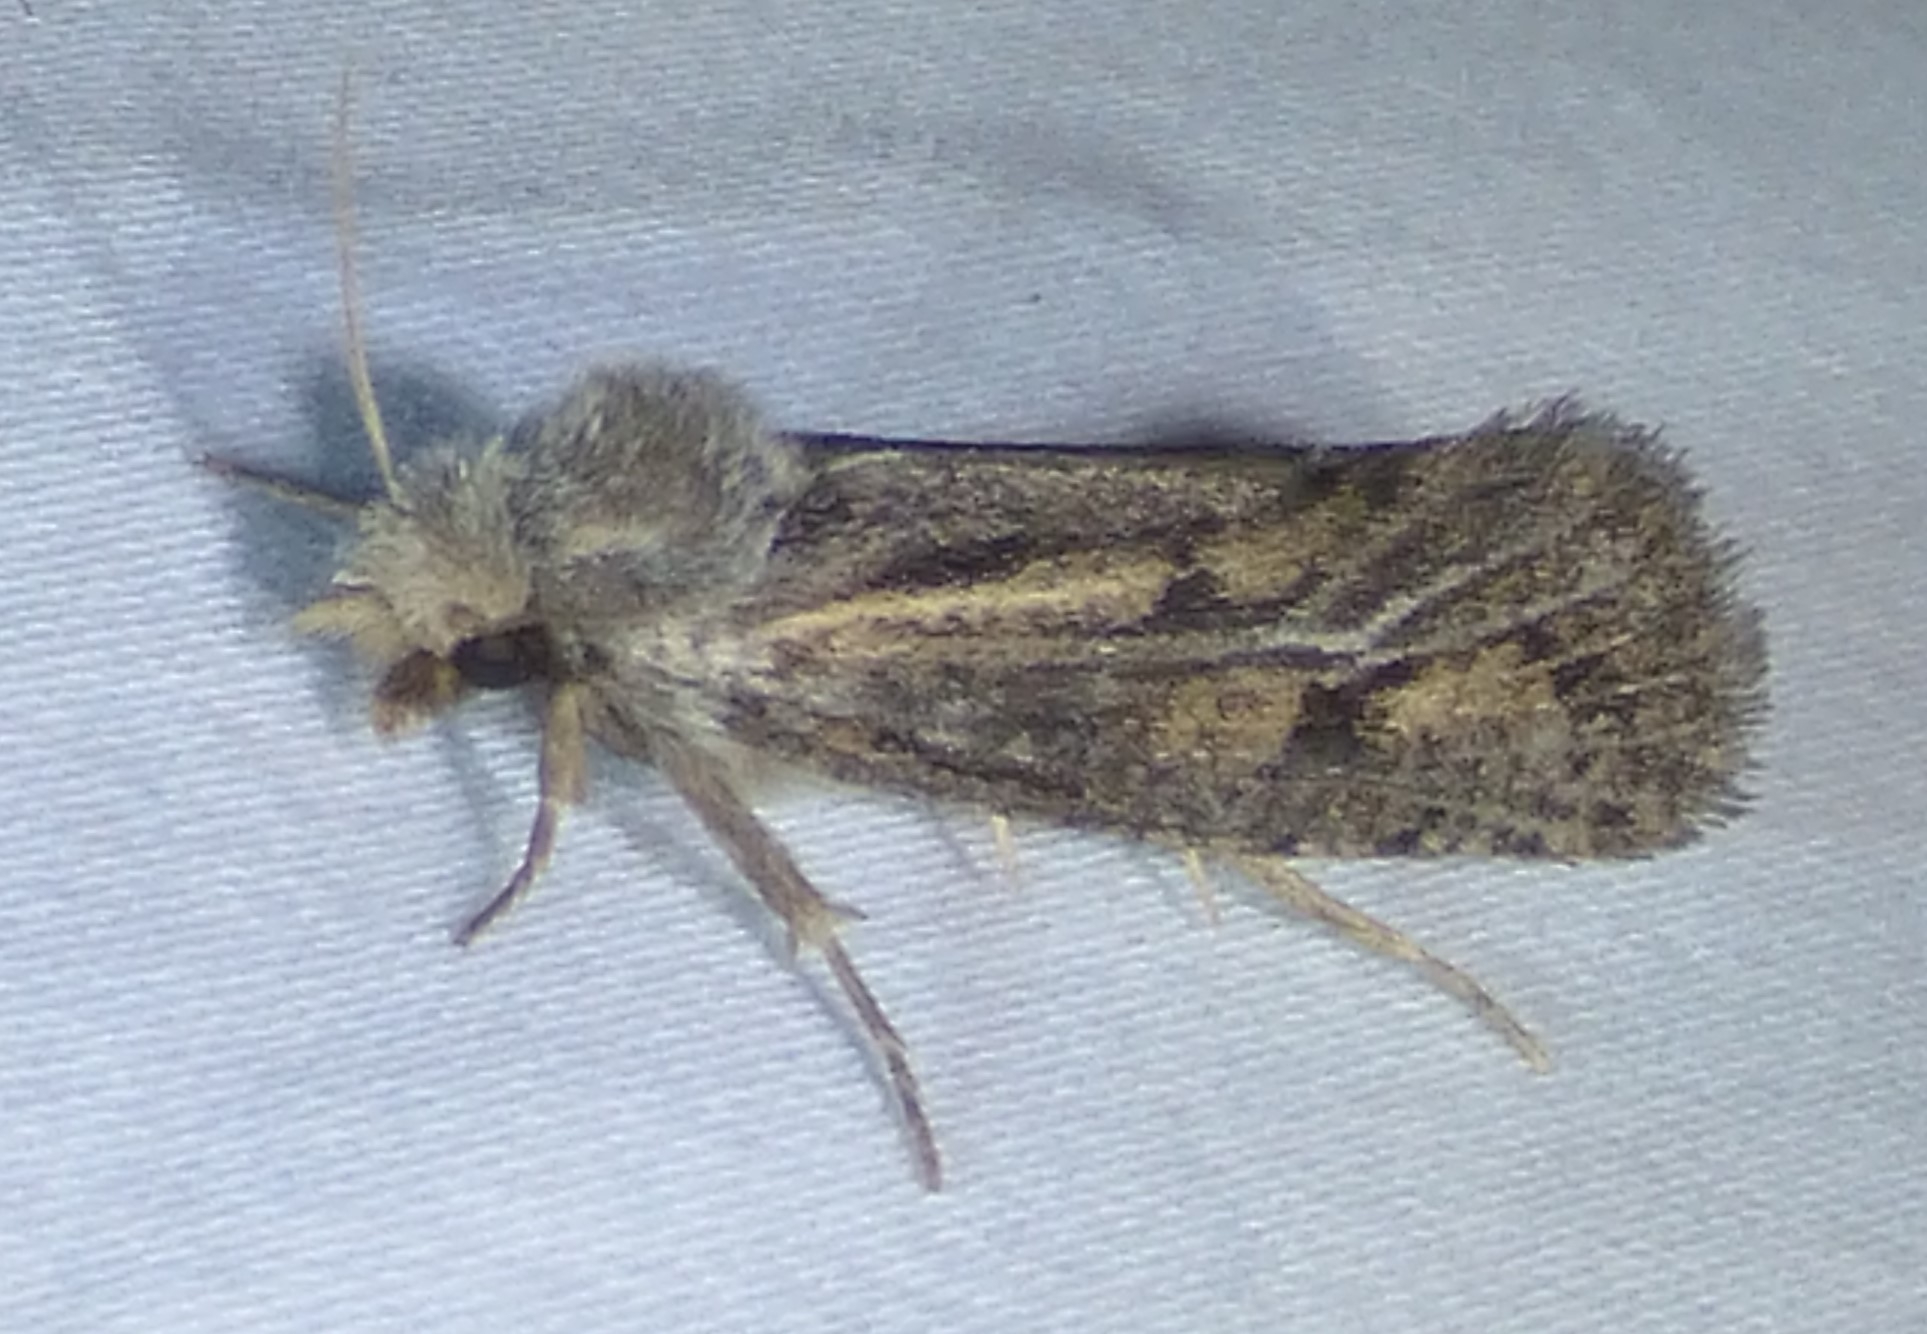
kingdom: Animalia
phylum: Arthropoda
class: Insecta
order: Lepidoptera
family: Tineidae
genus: Acrolophus
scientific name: Acrolophus popeanella
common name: Clemens' grass tubeworm moth
